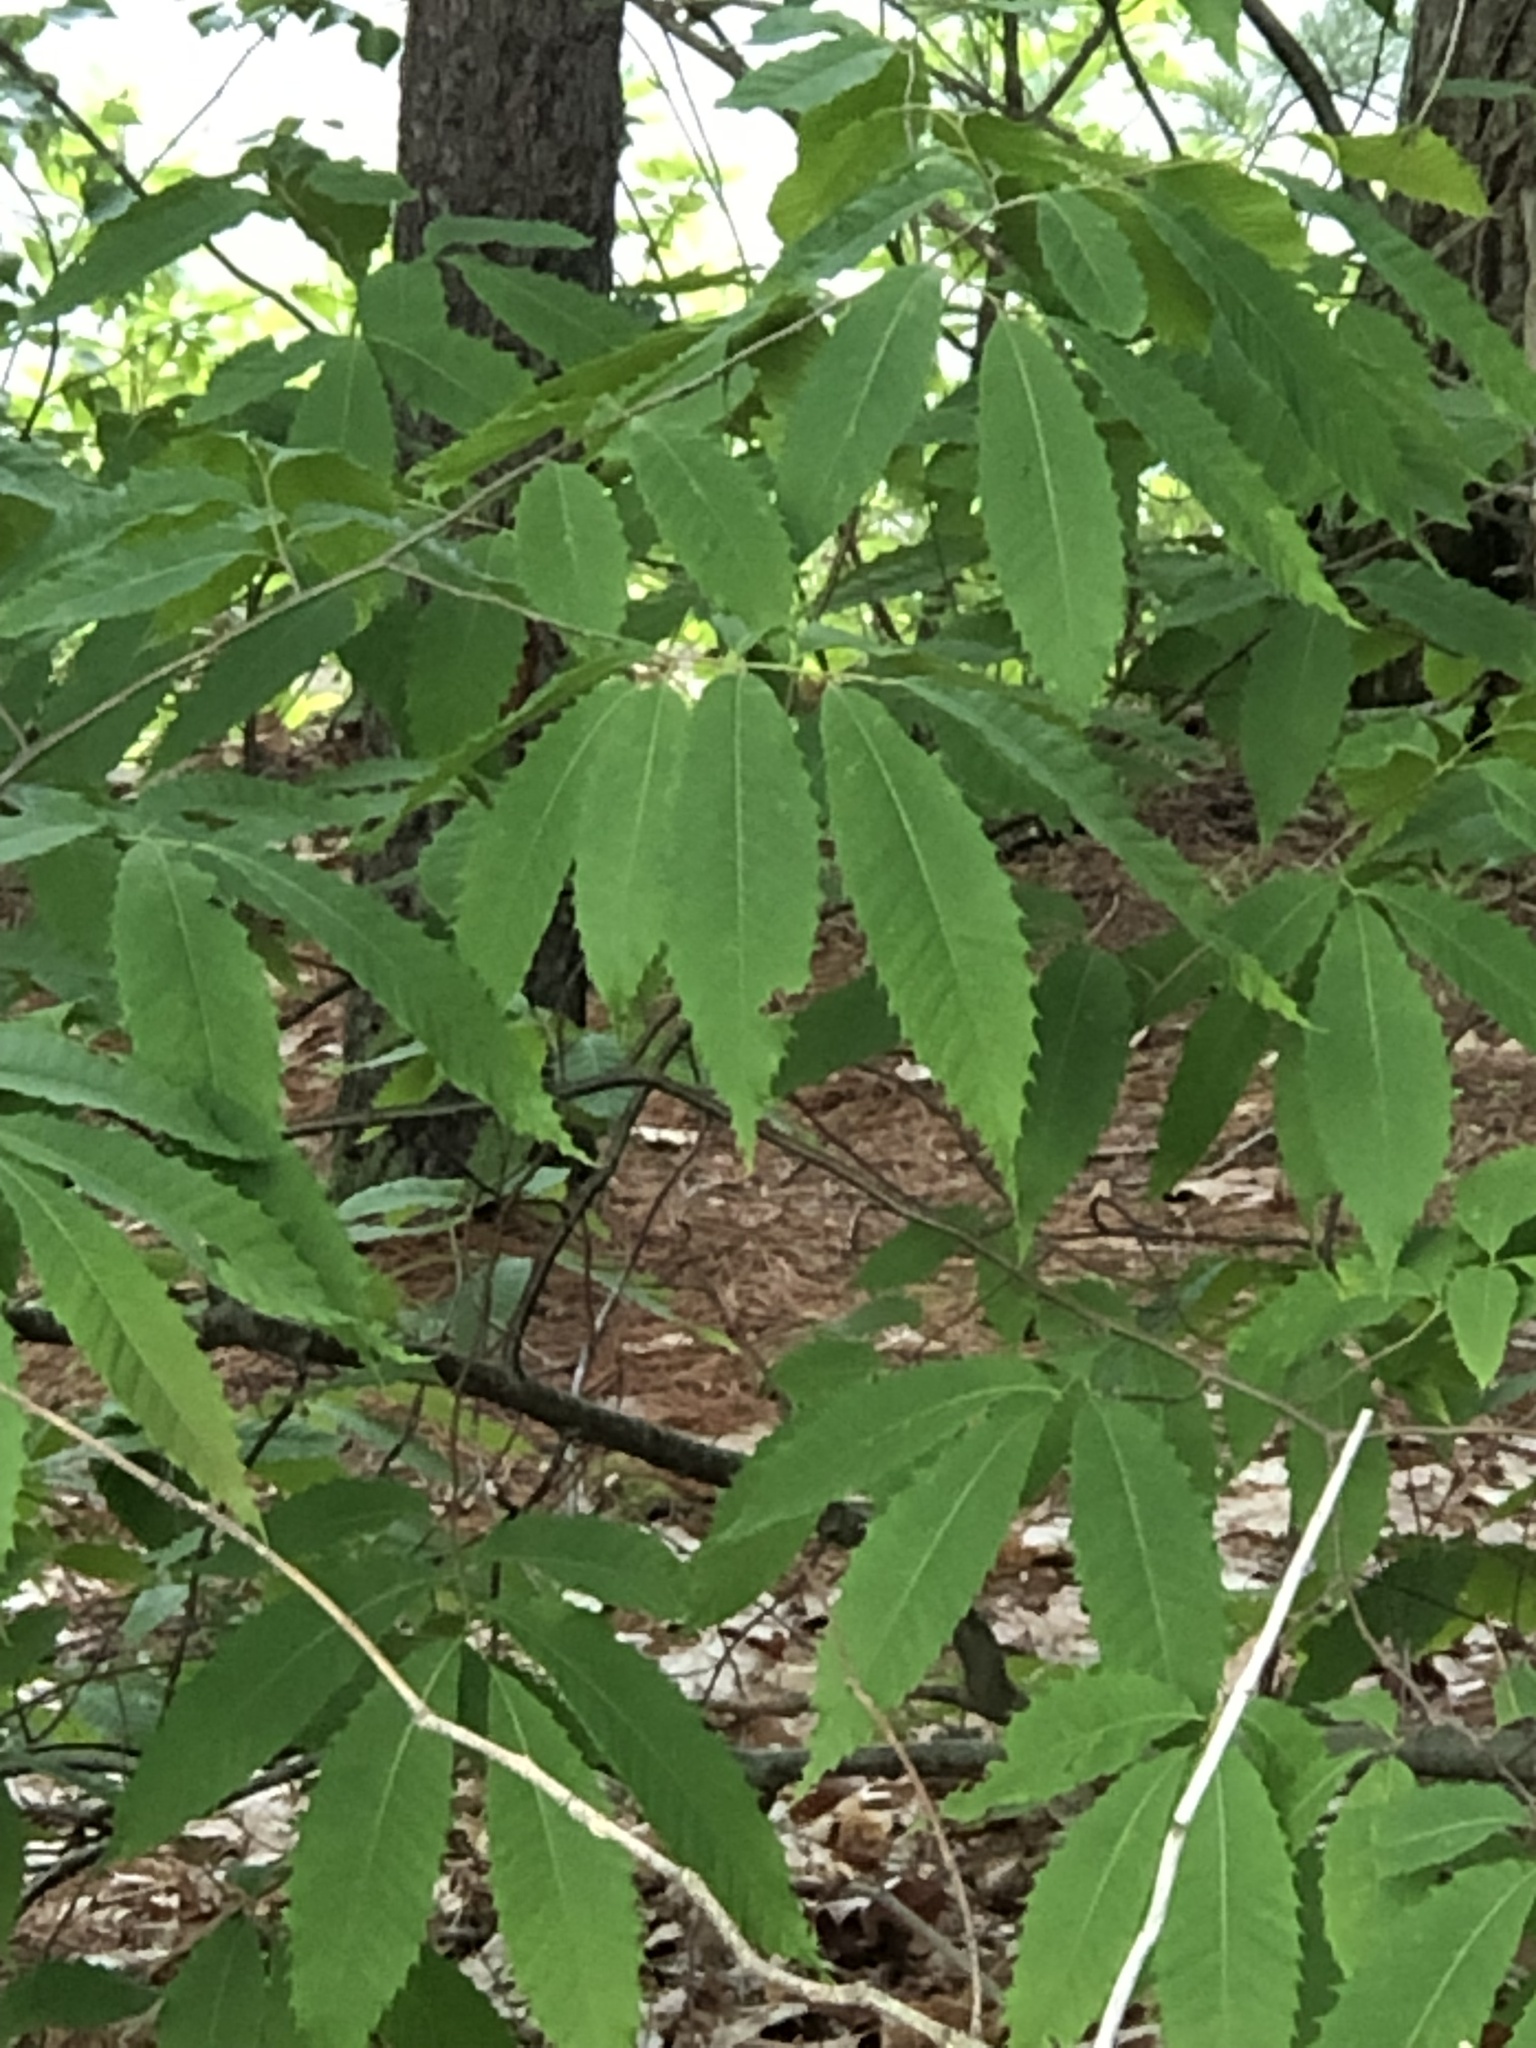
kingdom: Plantae
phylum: Tracheophyta
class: Magnoliopsida
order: Fagales
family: Fagaceae
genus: Castanea
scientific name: Castanea dentata
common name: American chestnut
